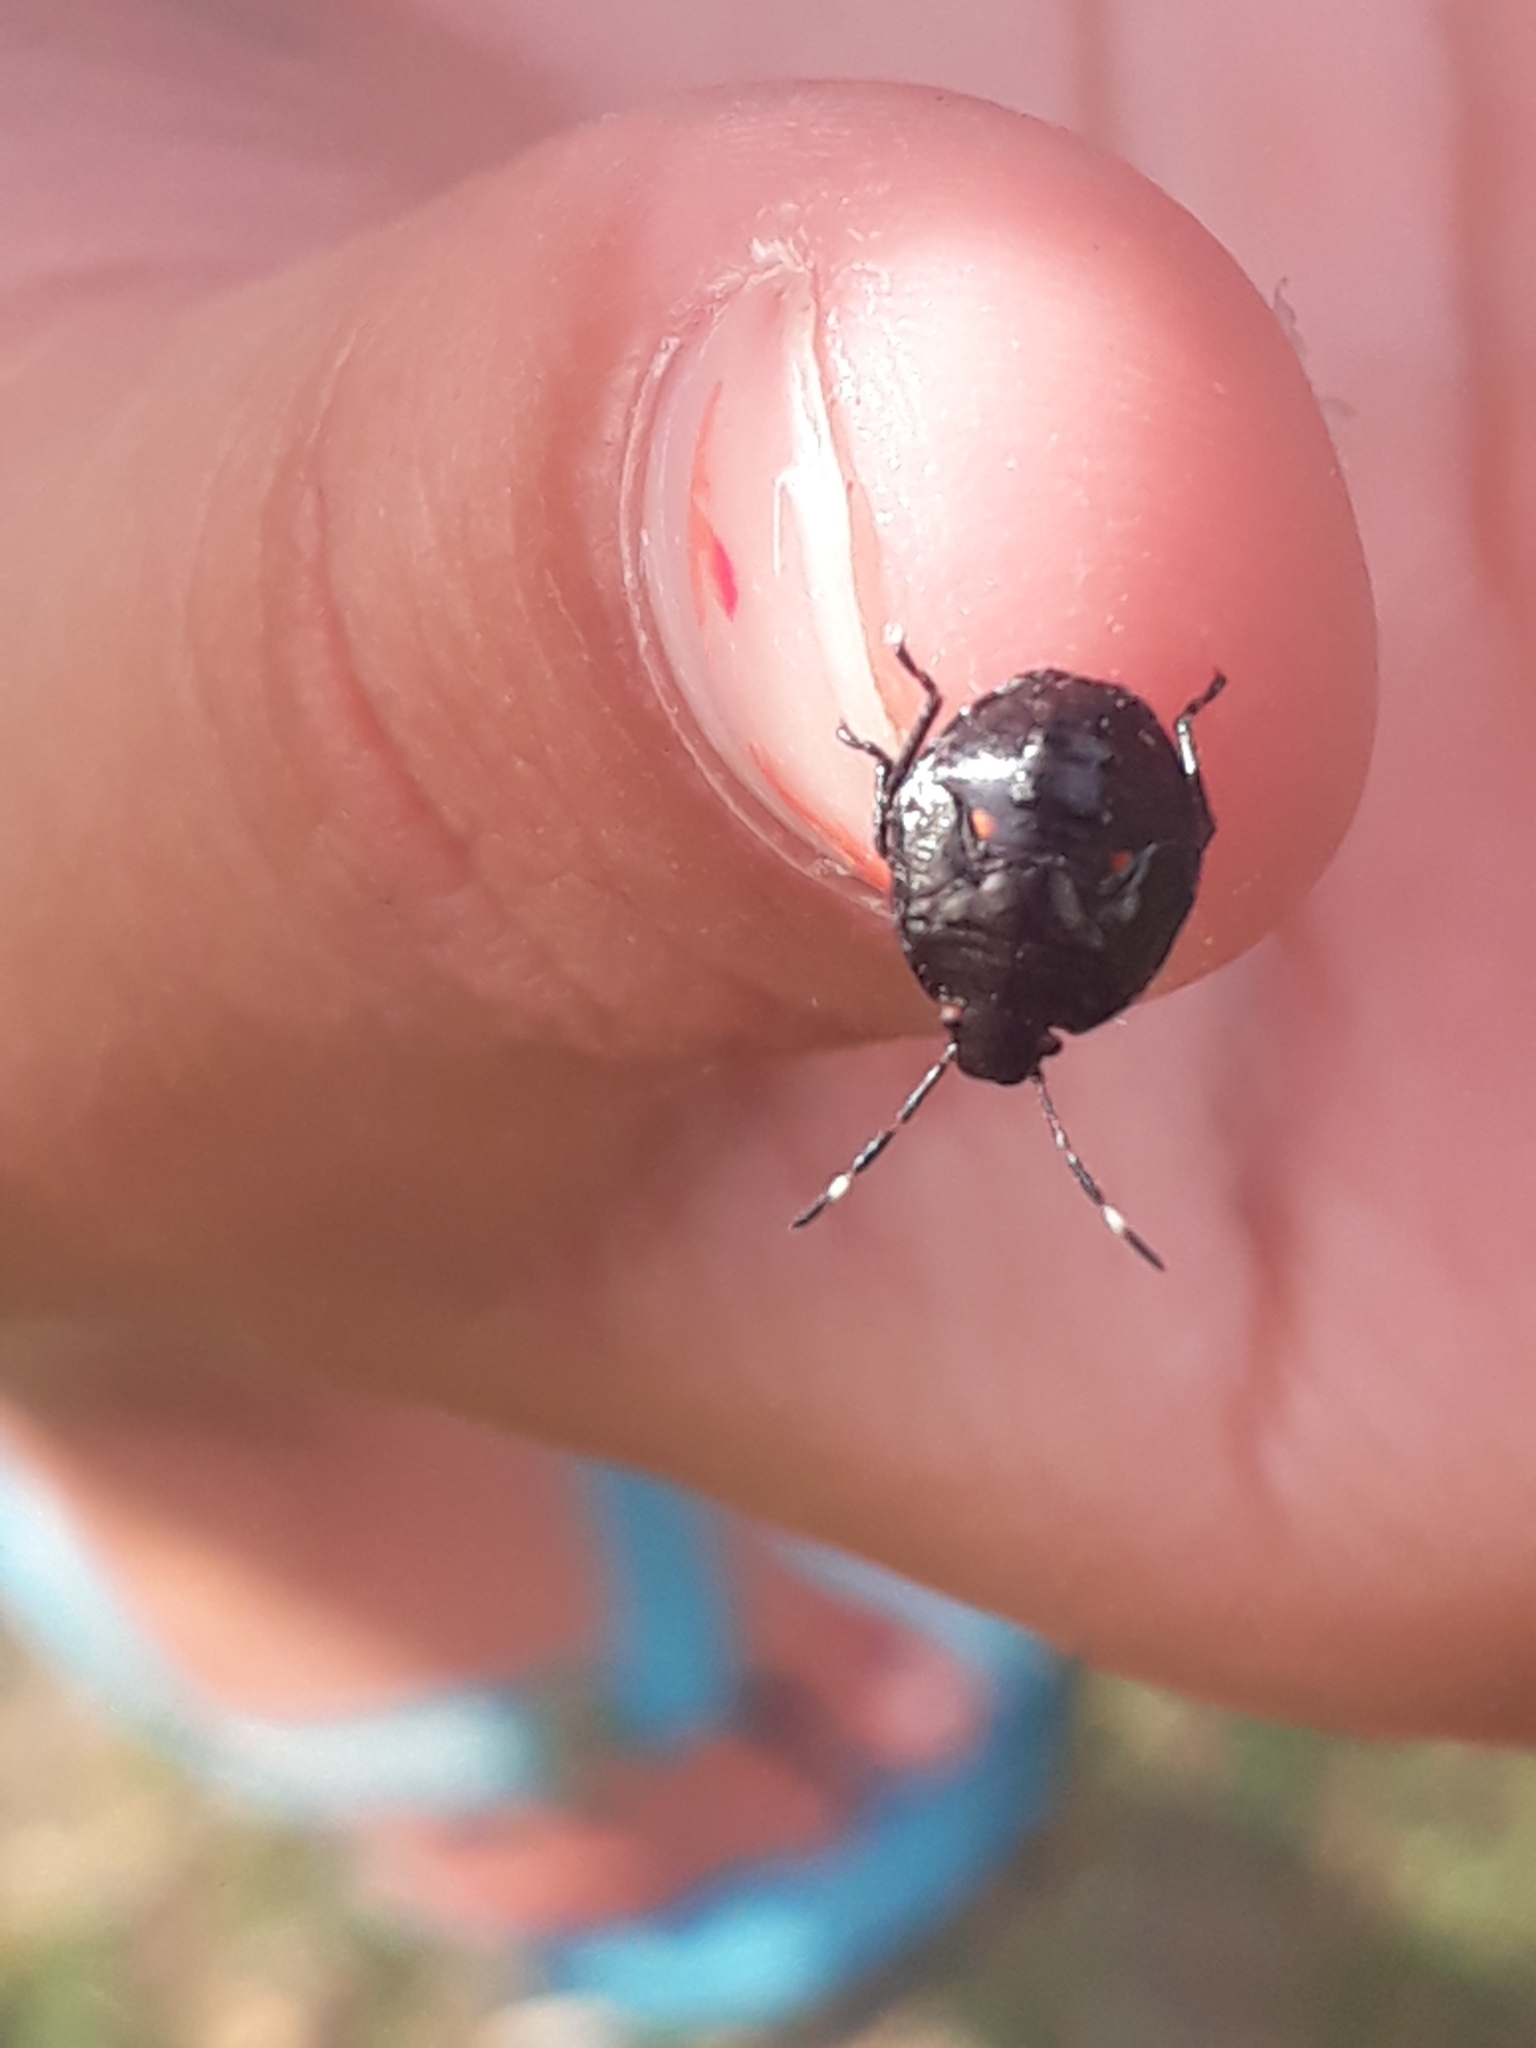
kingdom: Animalia
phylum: Arthropoda
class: Insecta
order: Hemiptera
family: Pentatomidae
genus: Monteithiella
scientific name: Monteithiella
